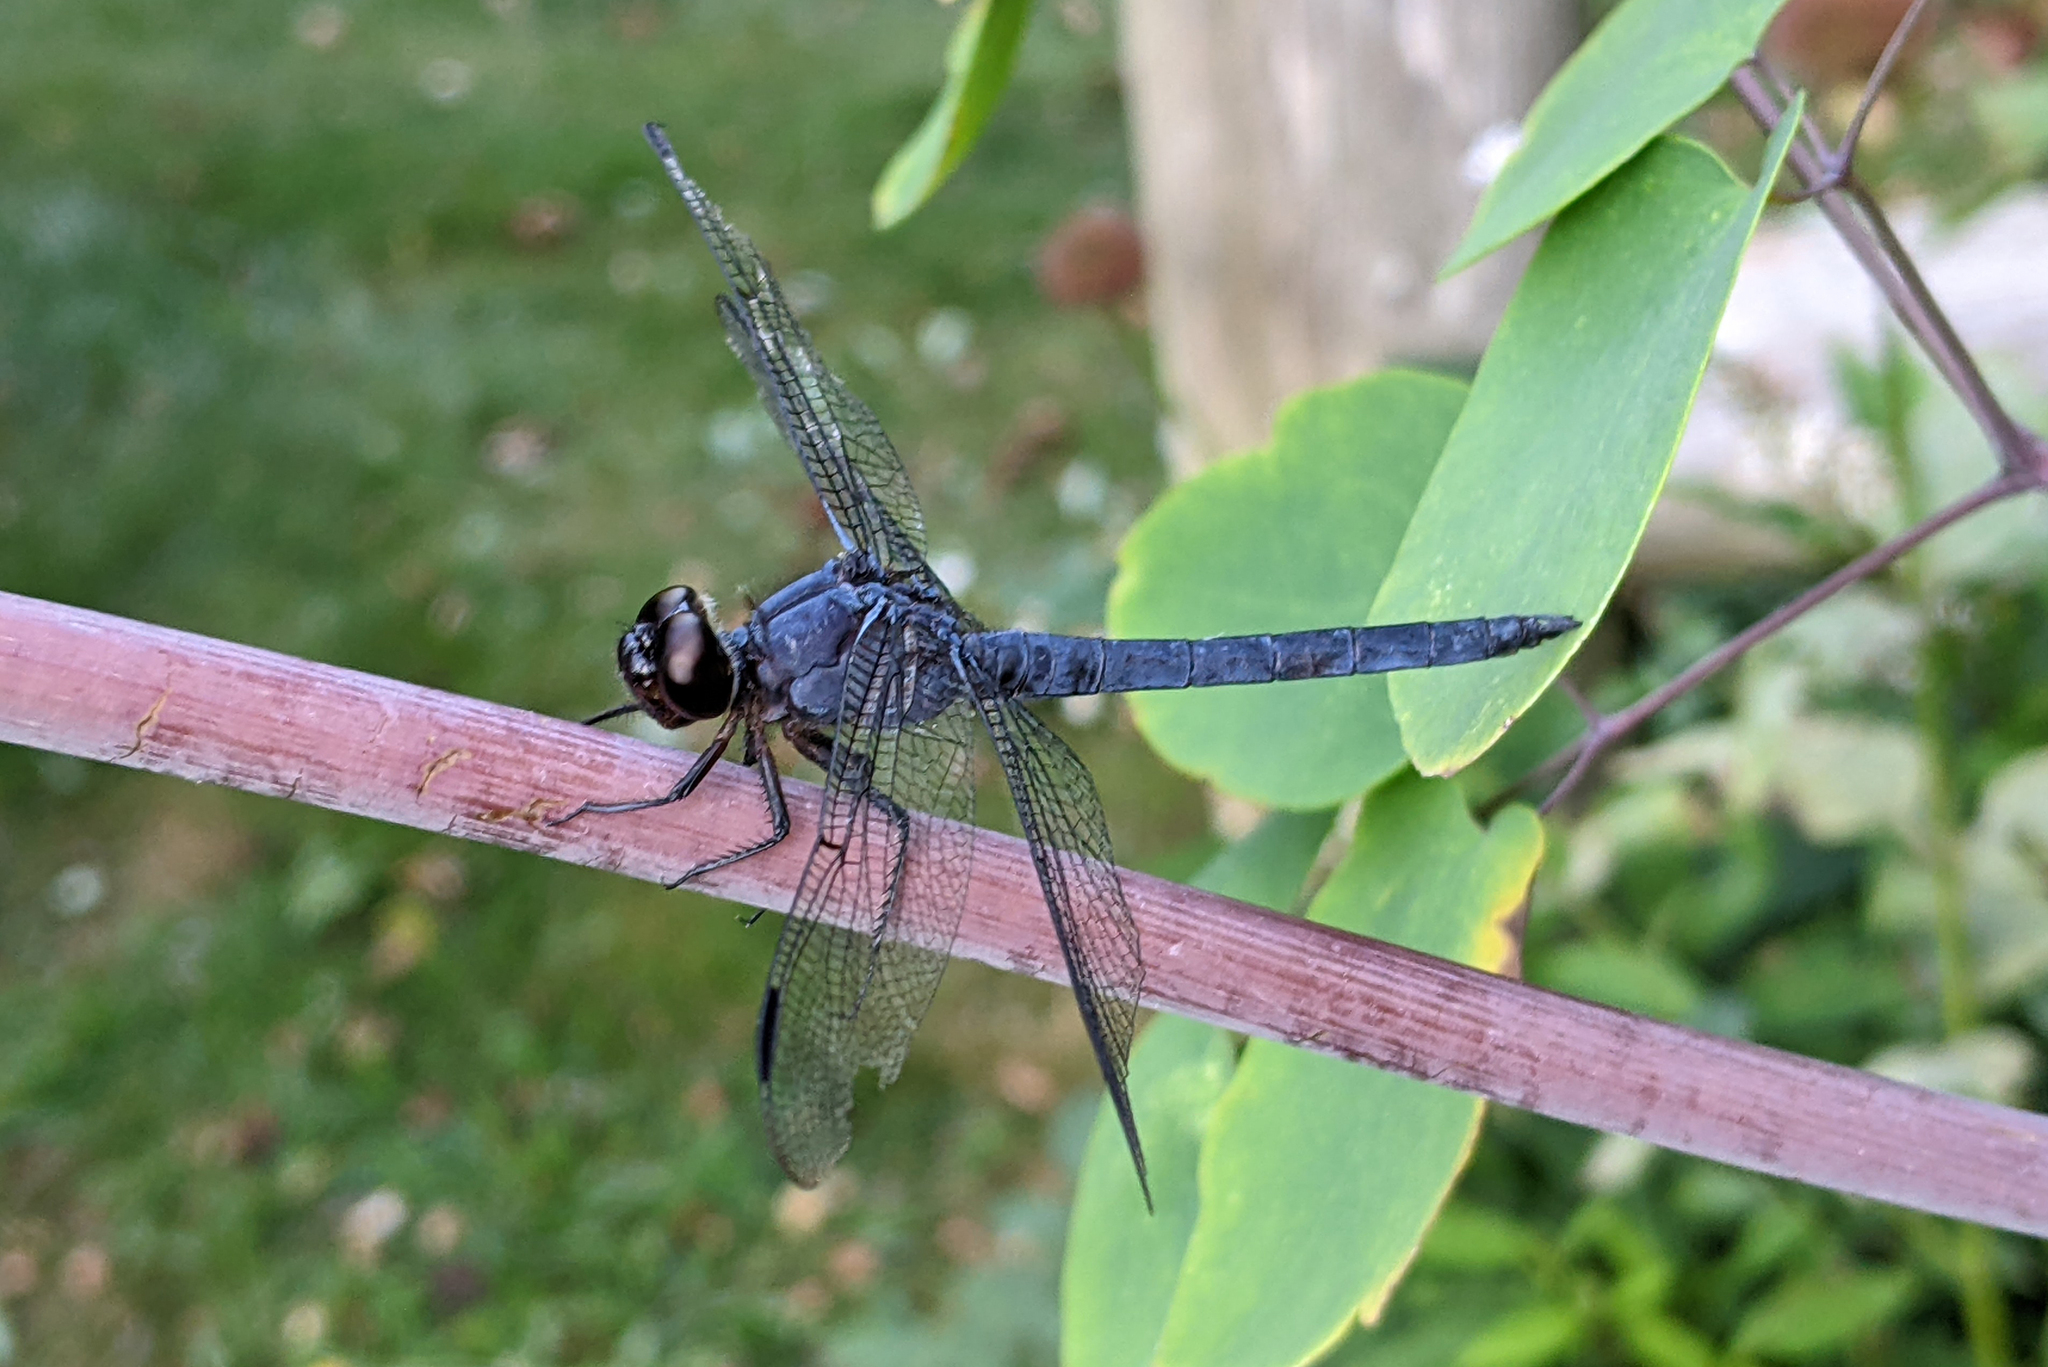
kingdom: Animalia
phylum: Arthropoda
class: Insecta
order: Odonata
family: Libellulidae
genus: Libellula
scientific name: Libellula incesta
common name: Slaty skimmer
